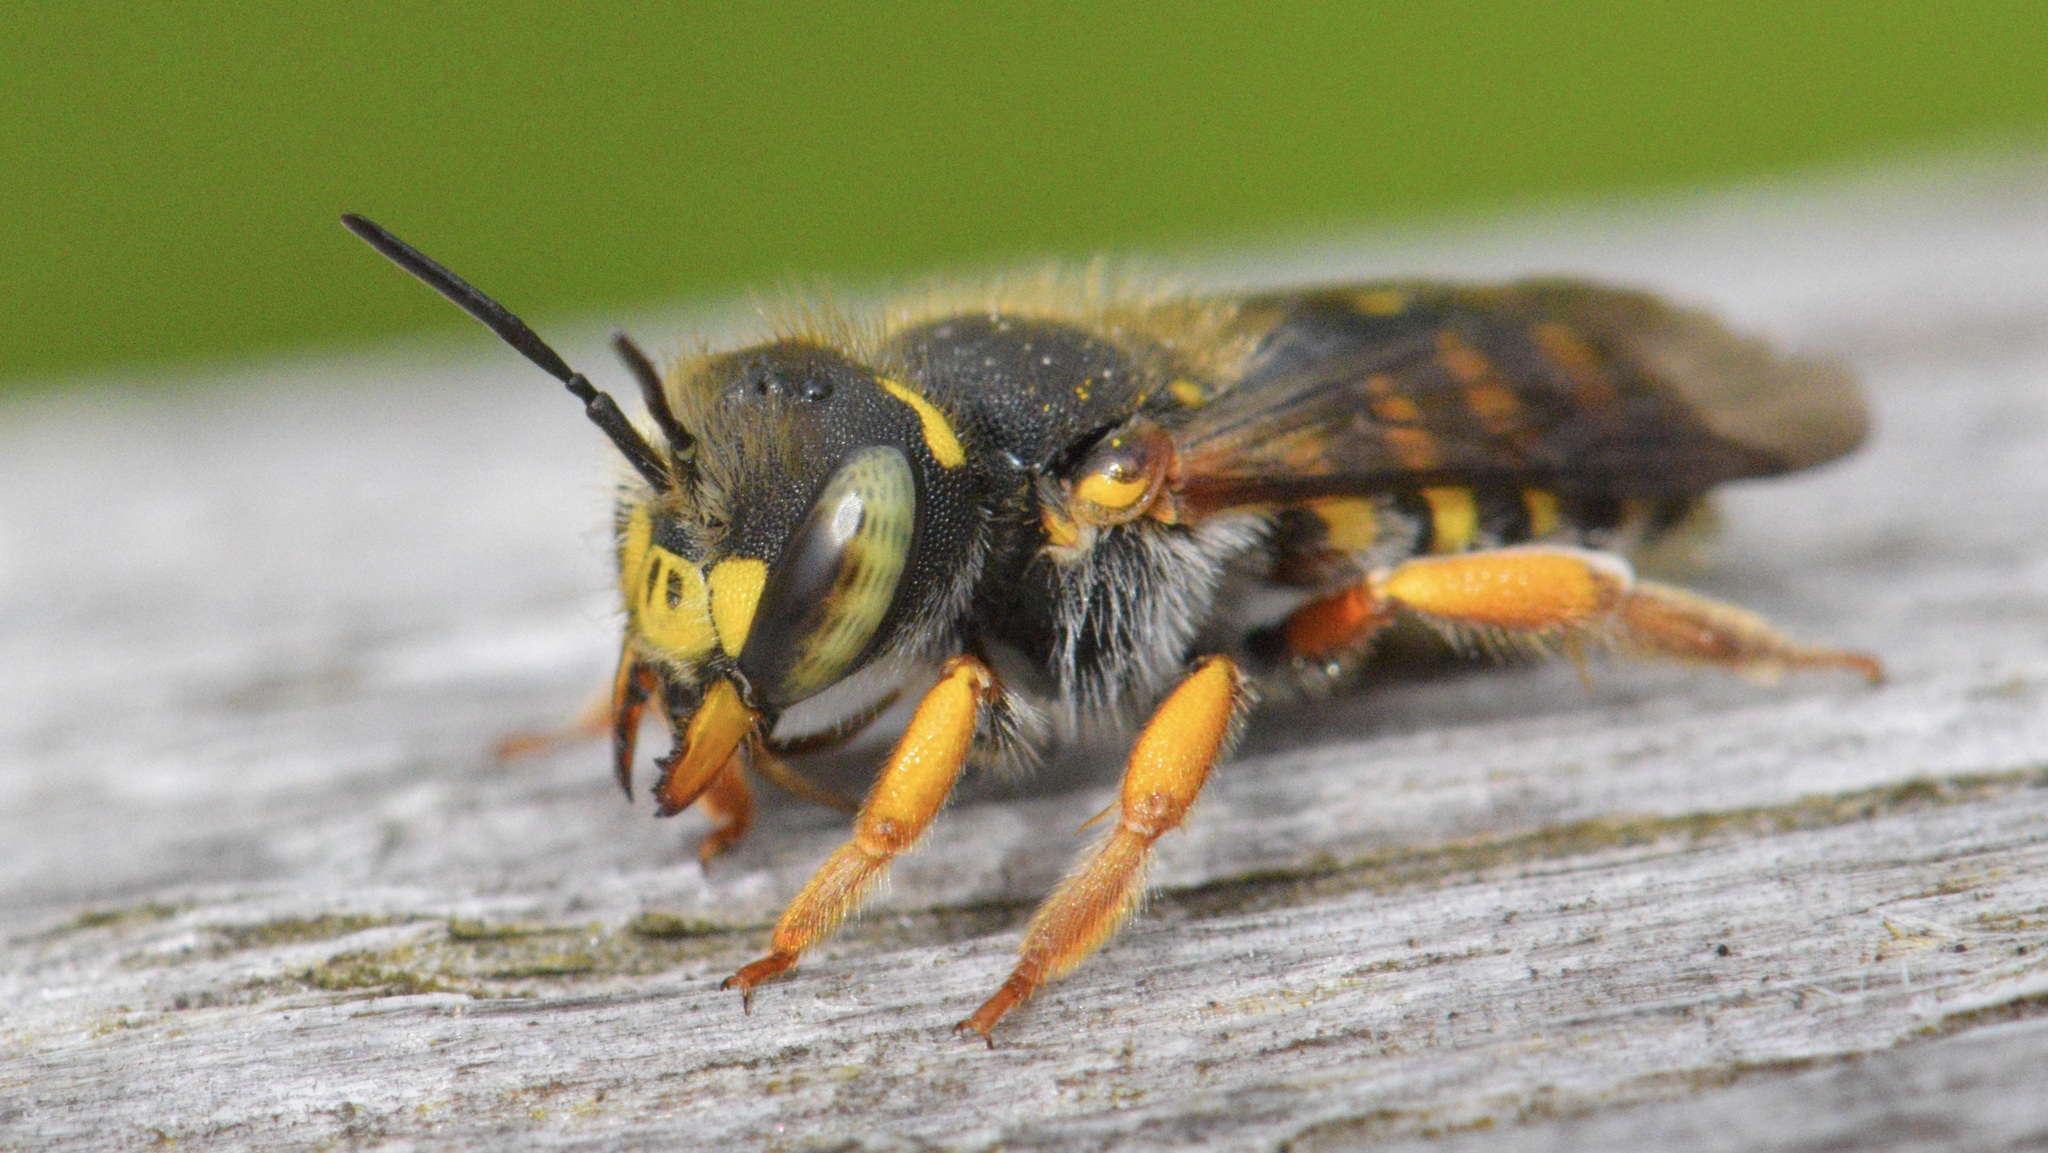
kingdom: Animalia
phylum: Arthropoda
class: Insecta
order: Hymenoptera
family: Megachilidae
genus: Anthidium
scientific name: Anthidium oblongatum
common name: Oblong wool carder bee
